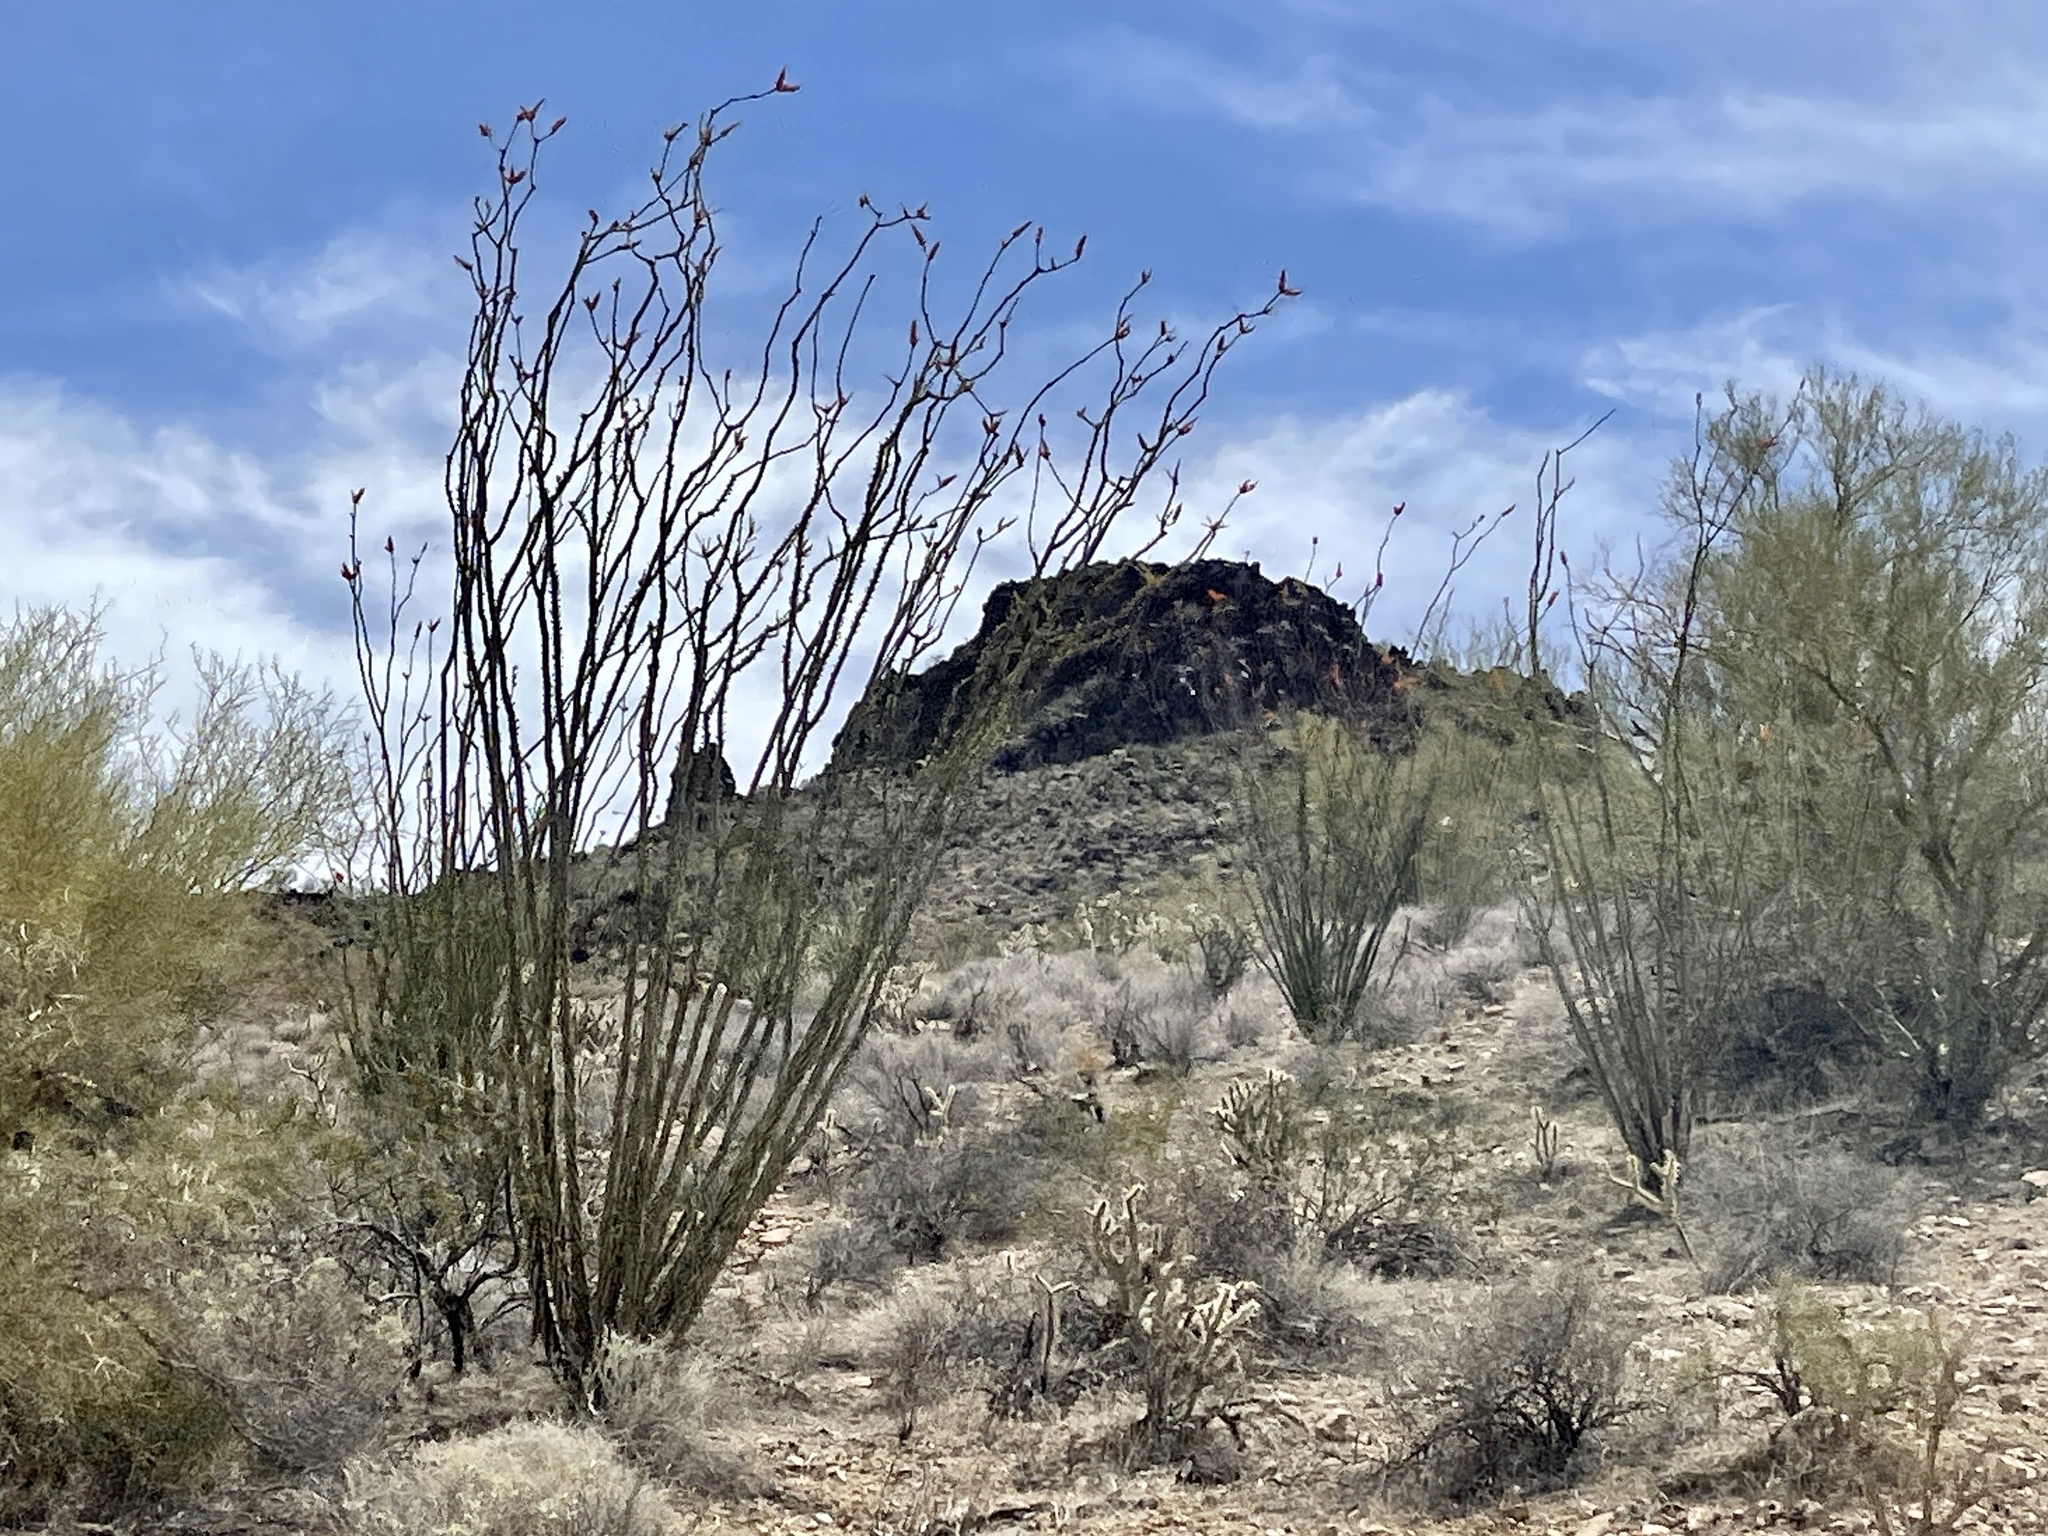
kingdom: Plantae
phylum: Tracheophyta
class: Magnoliopsida
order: Ericales
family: Fouquieriaceae
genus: Fouquieria
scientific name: Fouquieria splendens
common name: Vine-cactus
